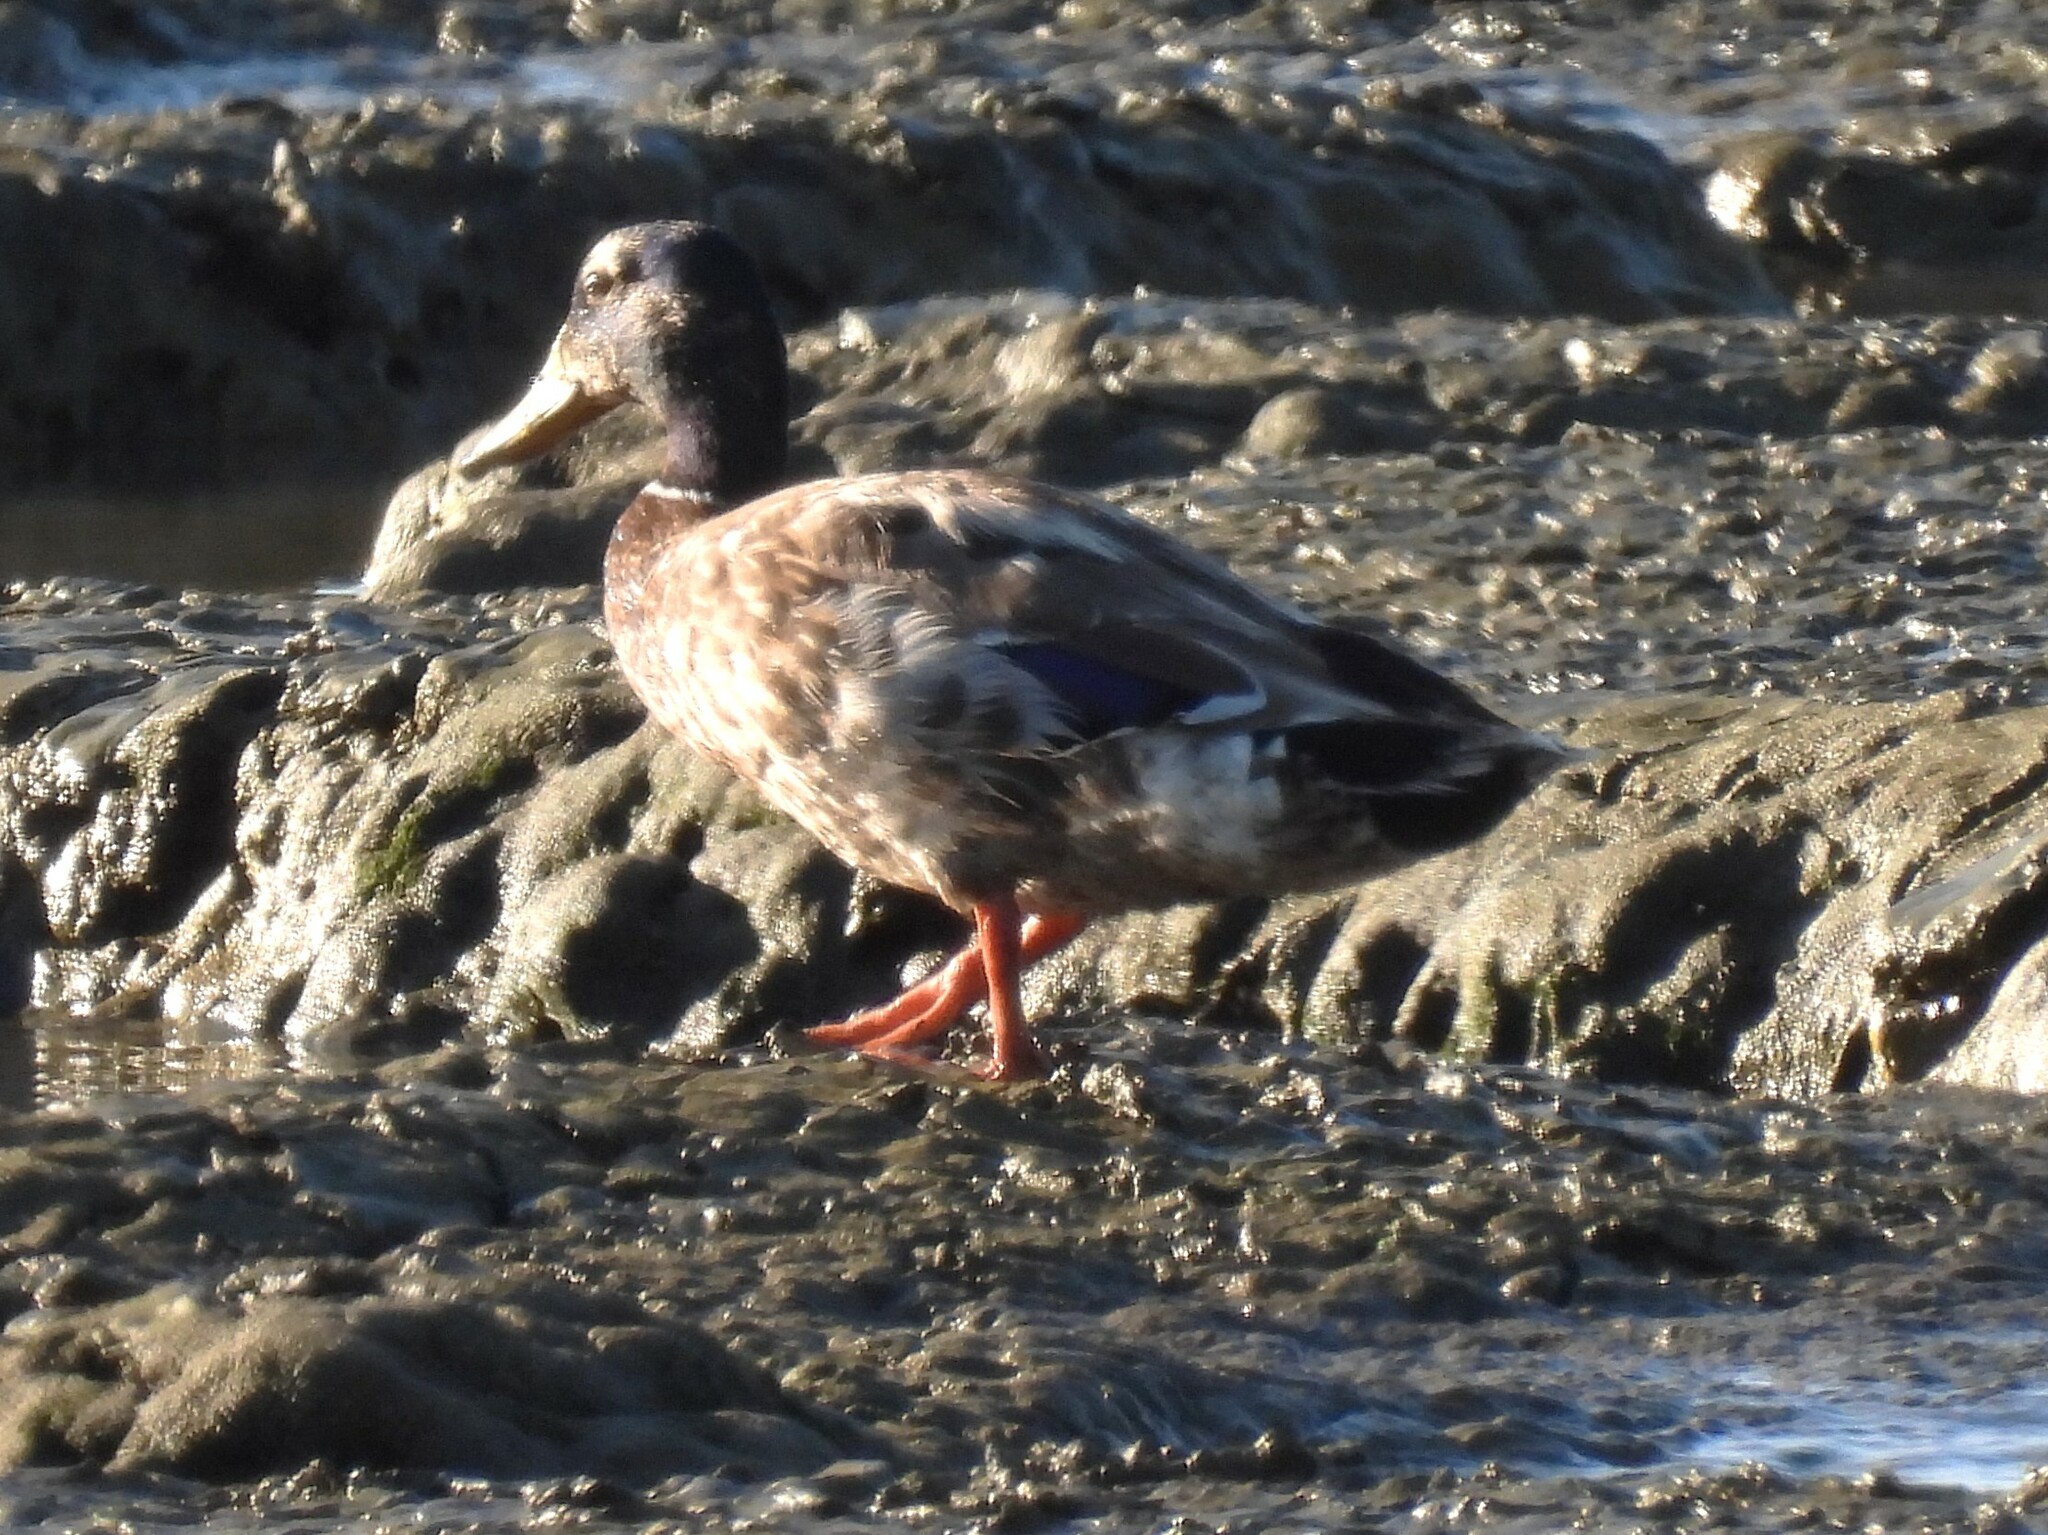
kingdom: Animalia
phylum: Chordata
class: Aves
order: Anseriformes
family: Anatidae
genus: Anas
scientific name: Anas platyrhynchos
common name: Mallard
